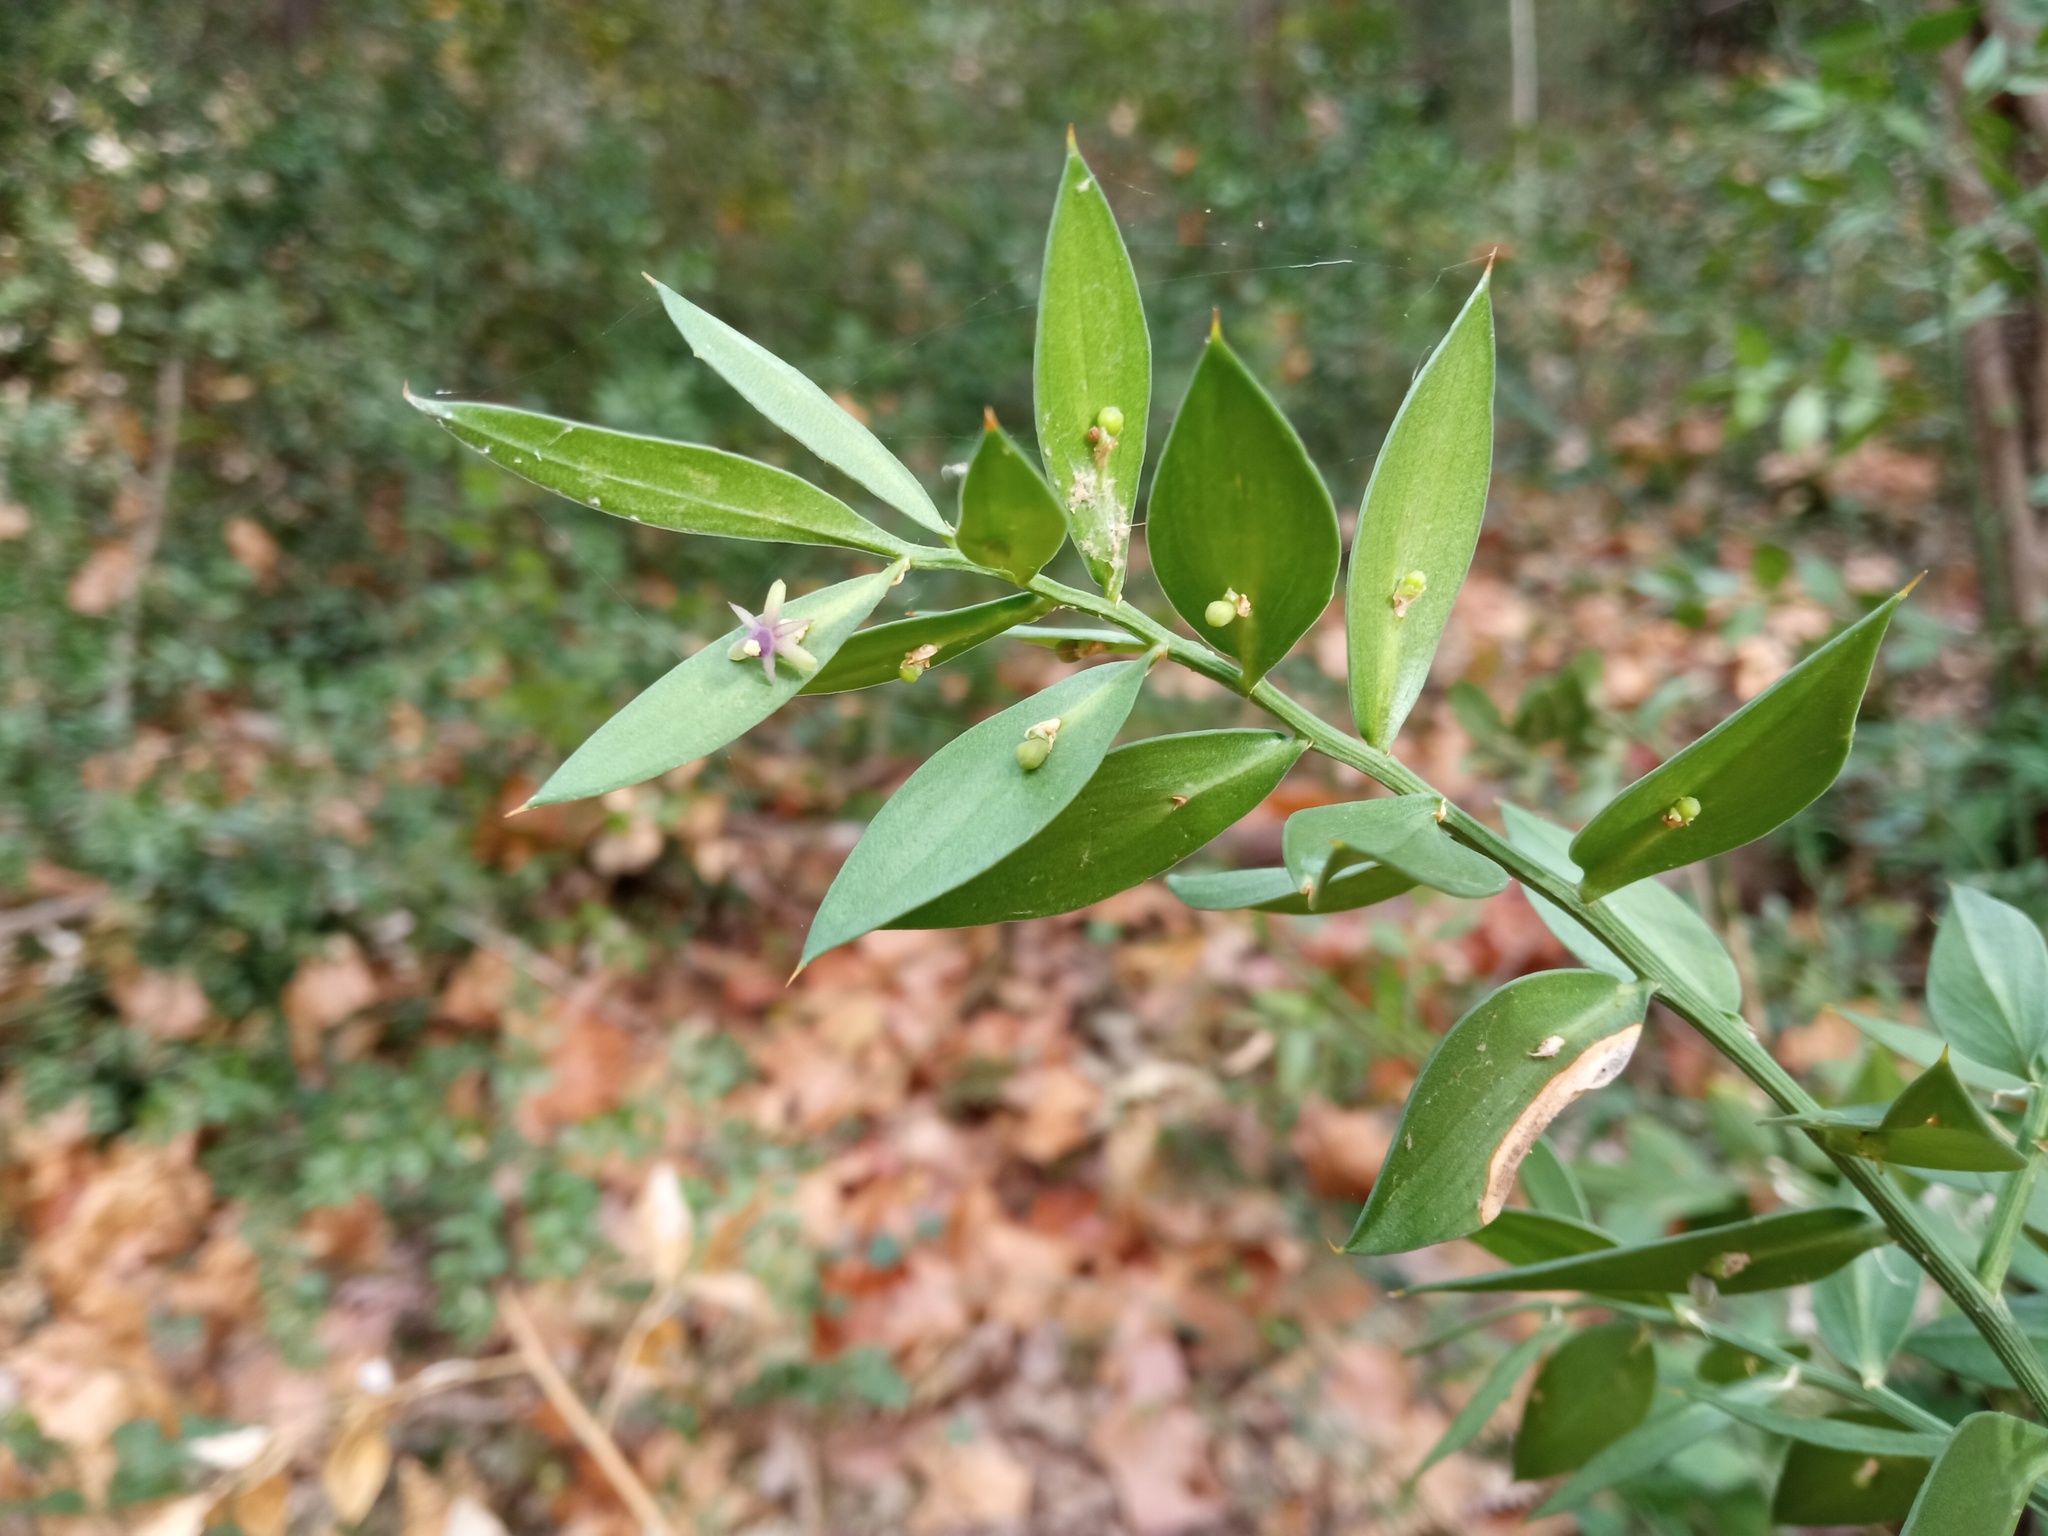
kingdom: Plantae
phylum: Tracheophyta
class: Liliopsida
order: Asparagales
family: Asparagaceae
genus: Ruscus
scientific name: Ruscus aculeatus
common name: Butcher's-broom
